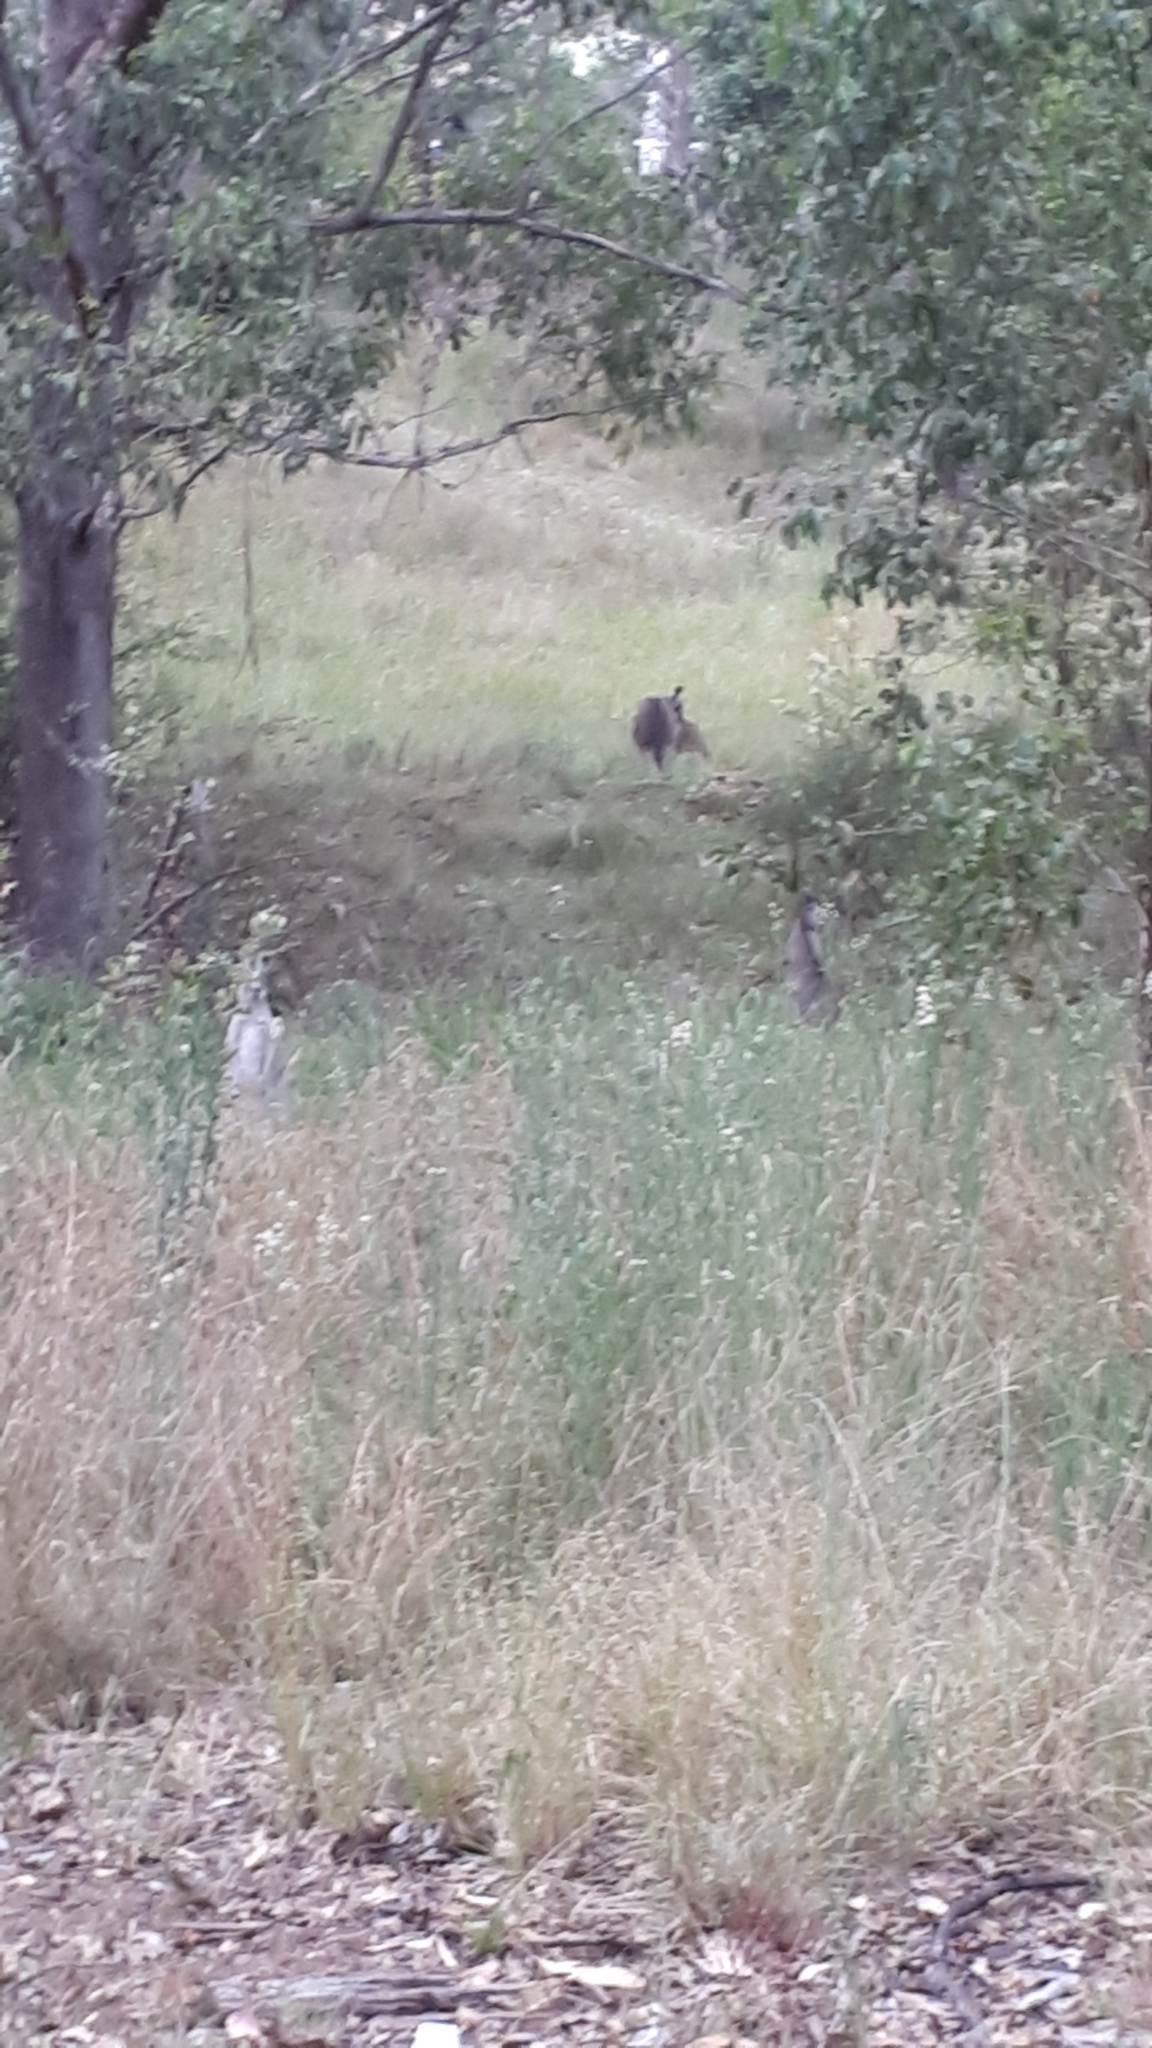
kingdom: Animalia
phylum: Chordata
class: Mammalia
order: Diprotodontia
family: Macropodidae
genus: Macropus
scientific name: Macropus giganteus
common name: Eastern grey kangaroo
